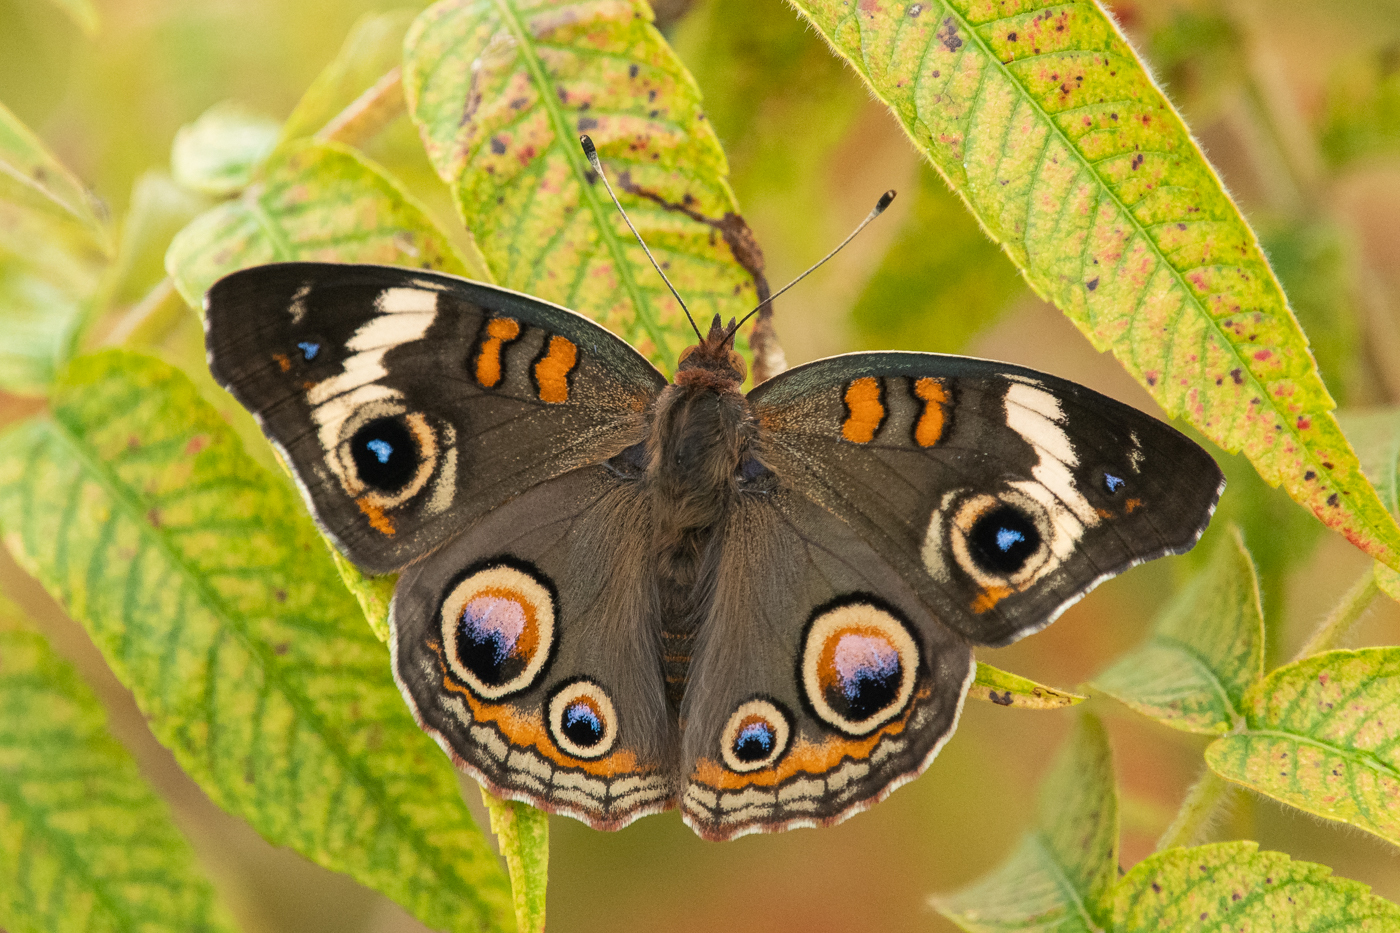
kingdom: Animalia
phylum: Arthropoda
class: Insecta
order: Lepidoptera
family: Nymphalidae
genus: Junonia
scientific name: Junonia coenia
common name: Common buckeye
